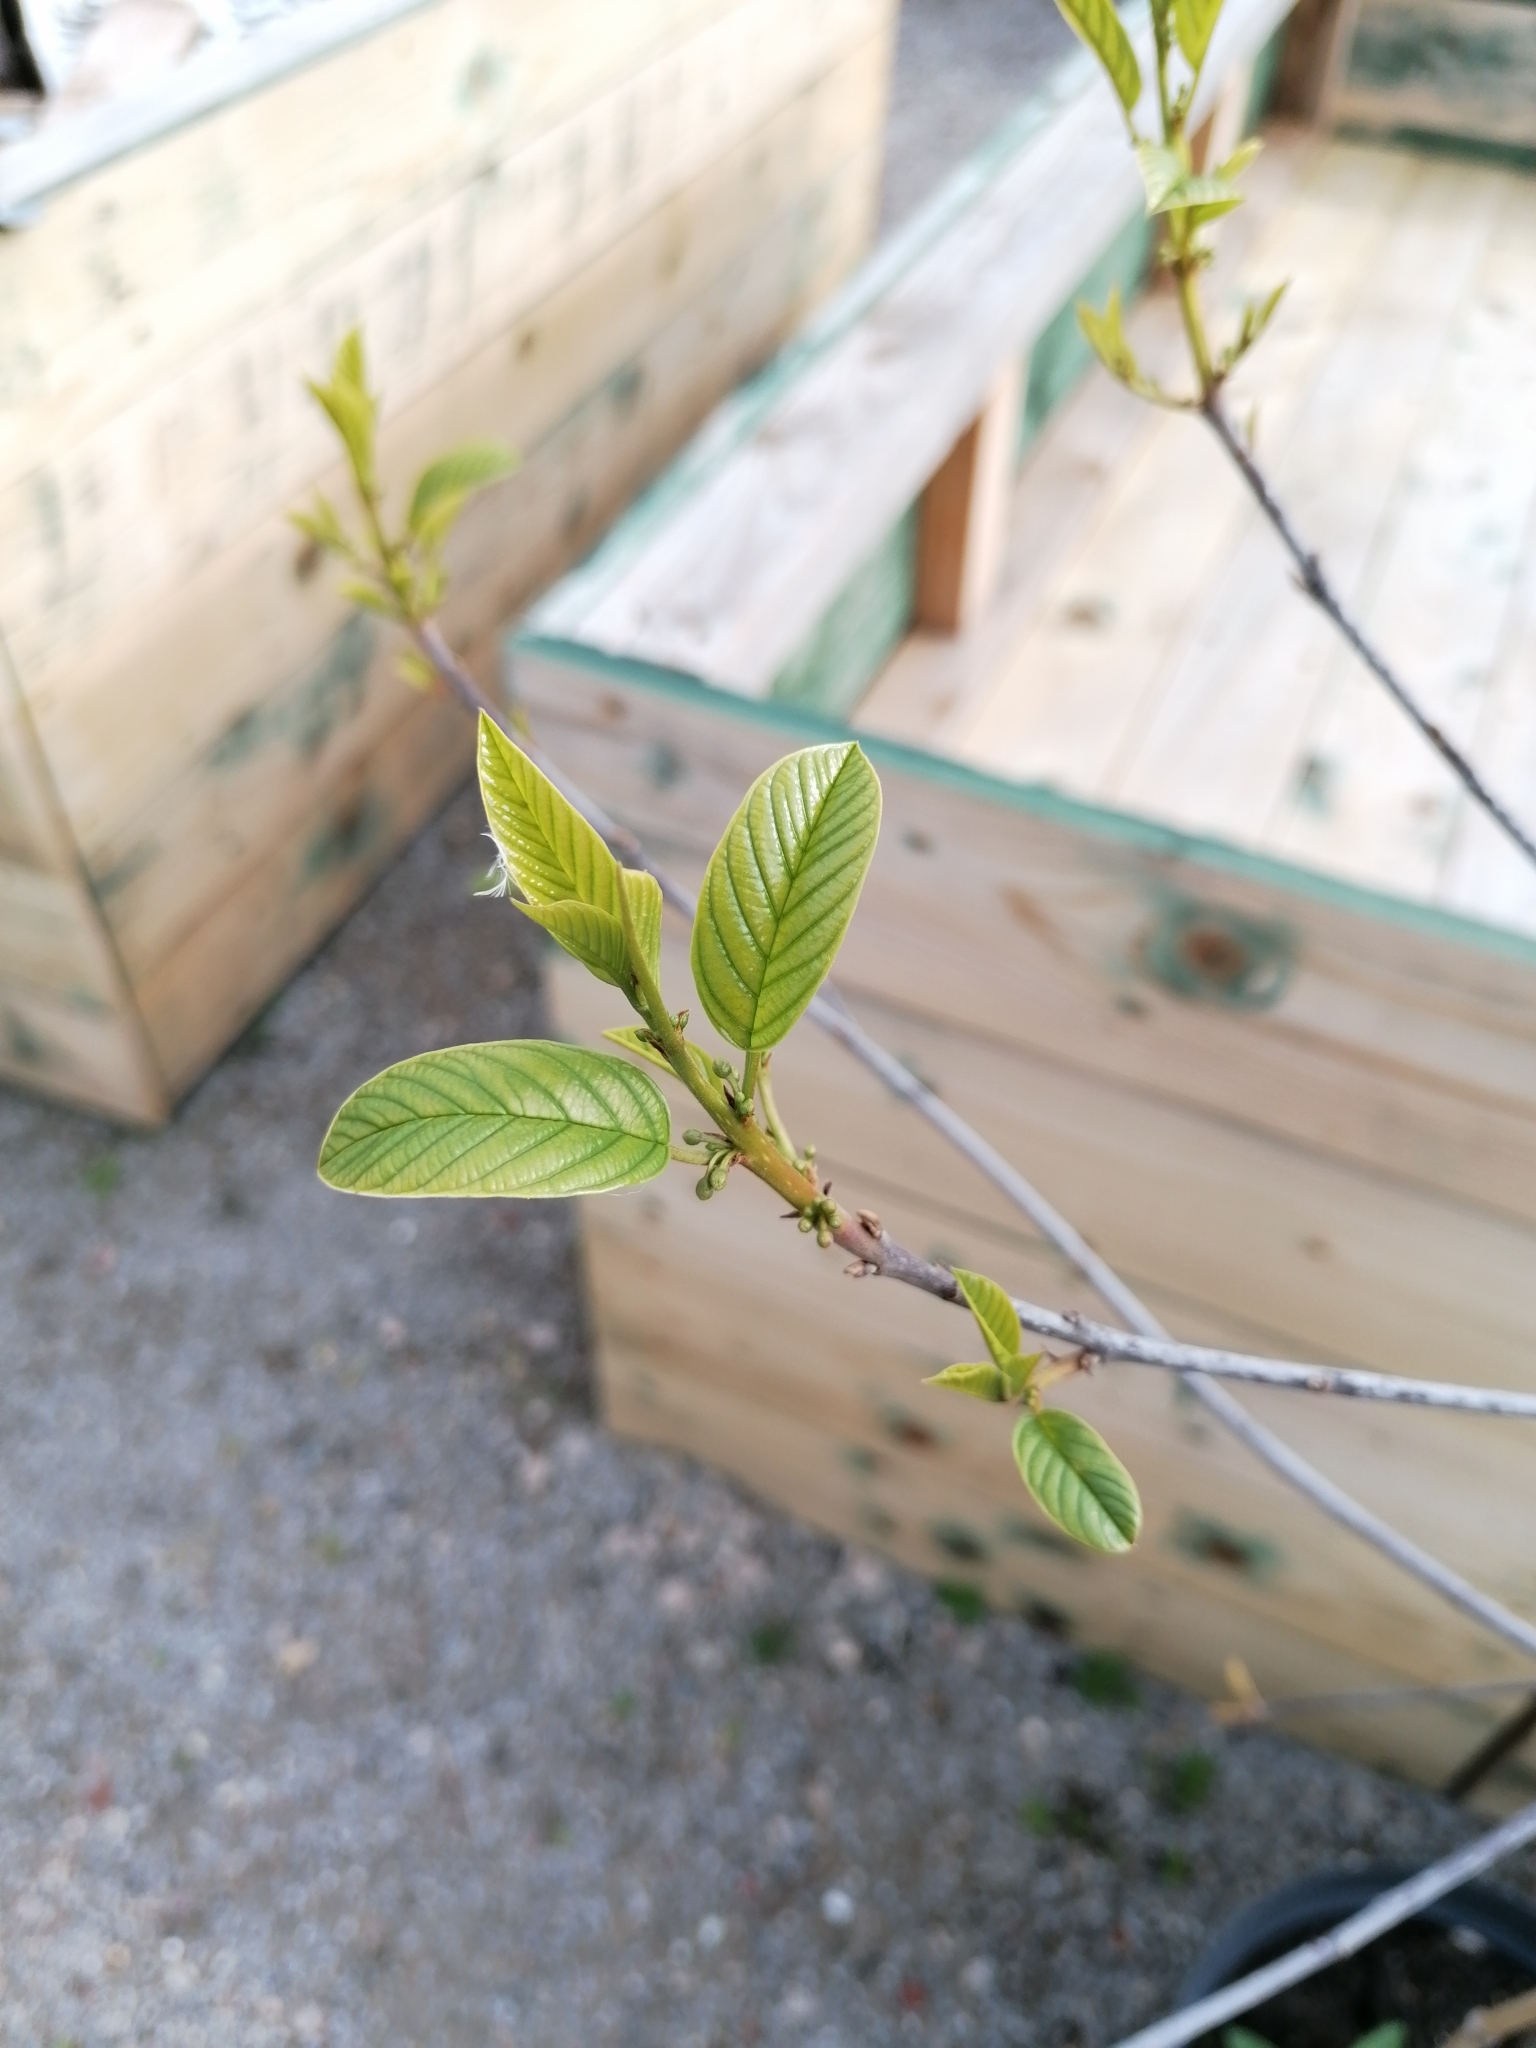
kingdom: Plantae
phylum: Tracheophyta
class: Magnoliopsida
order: Rosales
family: Rhamnaceae
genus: Frangula
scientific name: Frangula alnus
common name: Alder buckthorn
